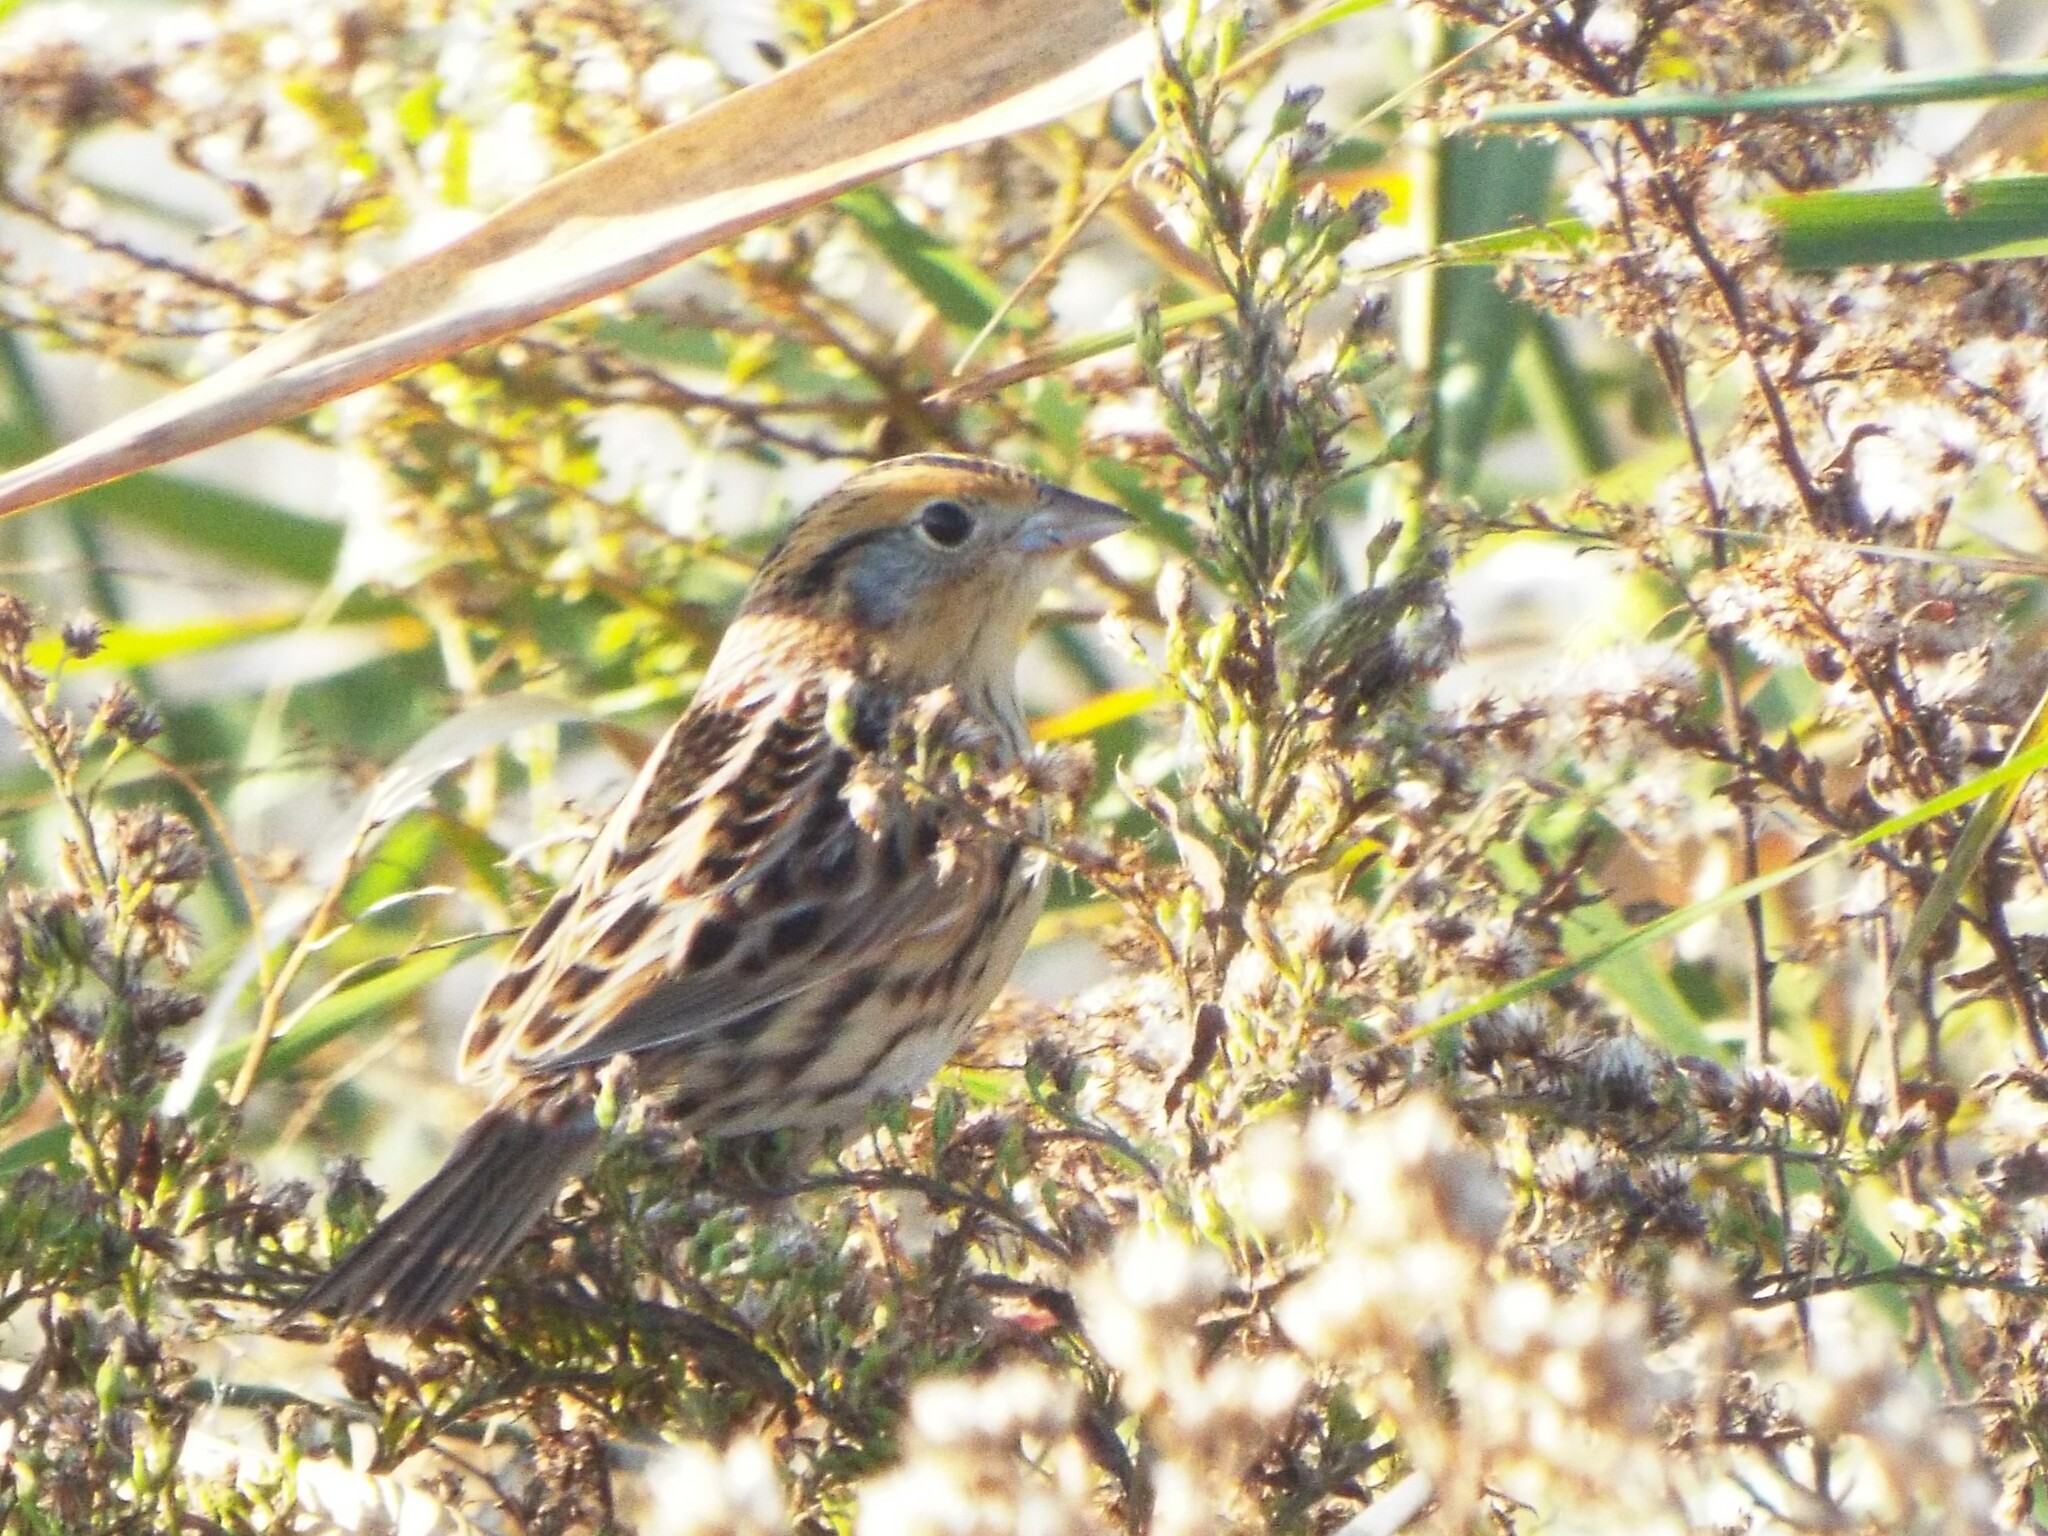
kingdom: Animalia
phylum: Chordata
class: Aves
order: Passeriformes
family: Passerellidae
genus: Ammospiza
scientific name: Ammospiza leconteii
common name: Le conte's sparrow
